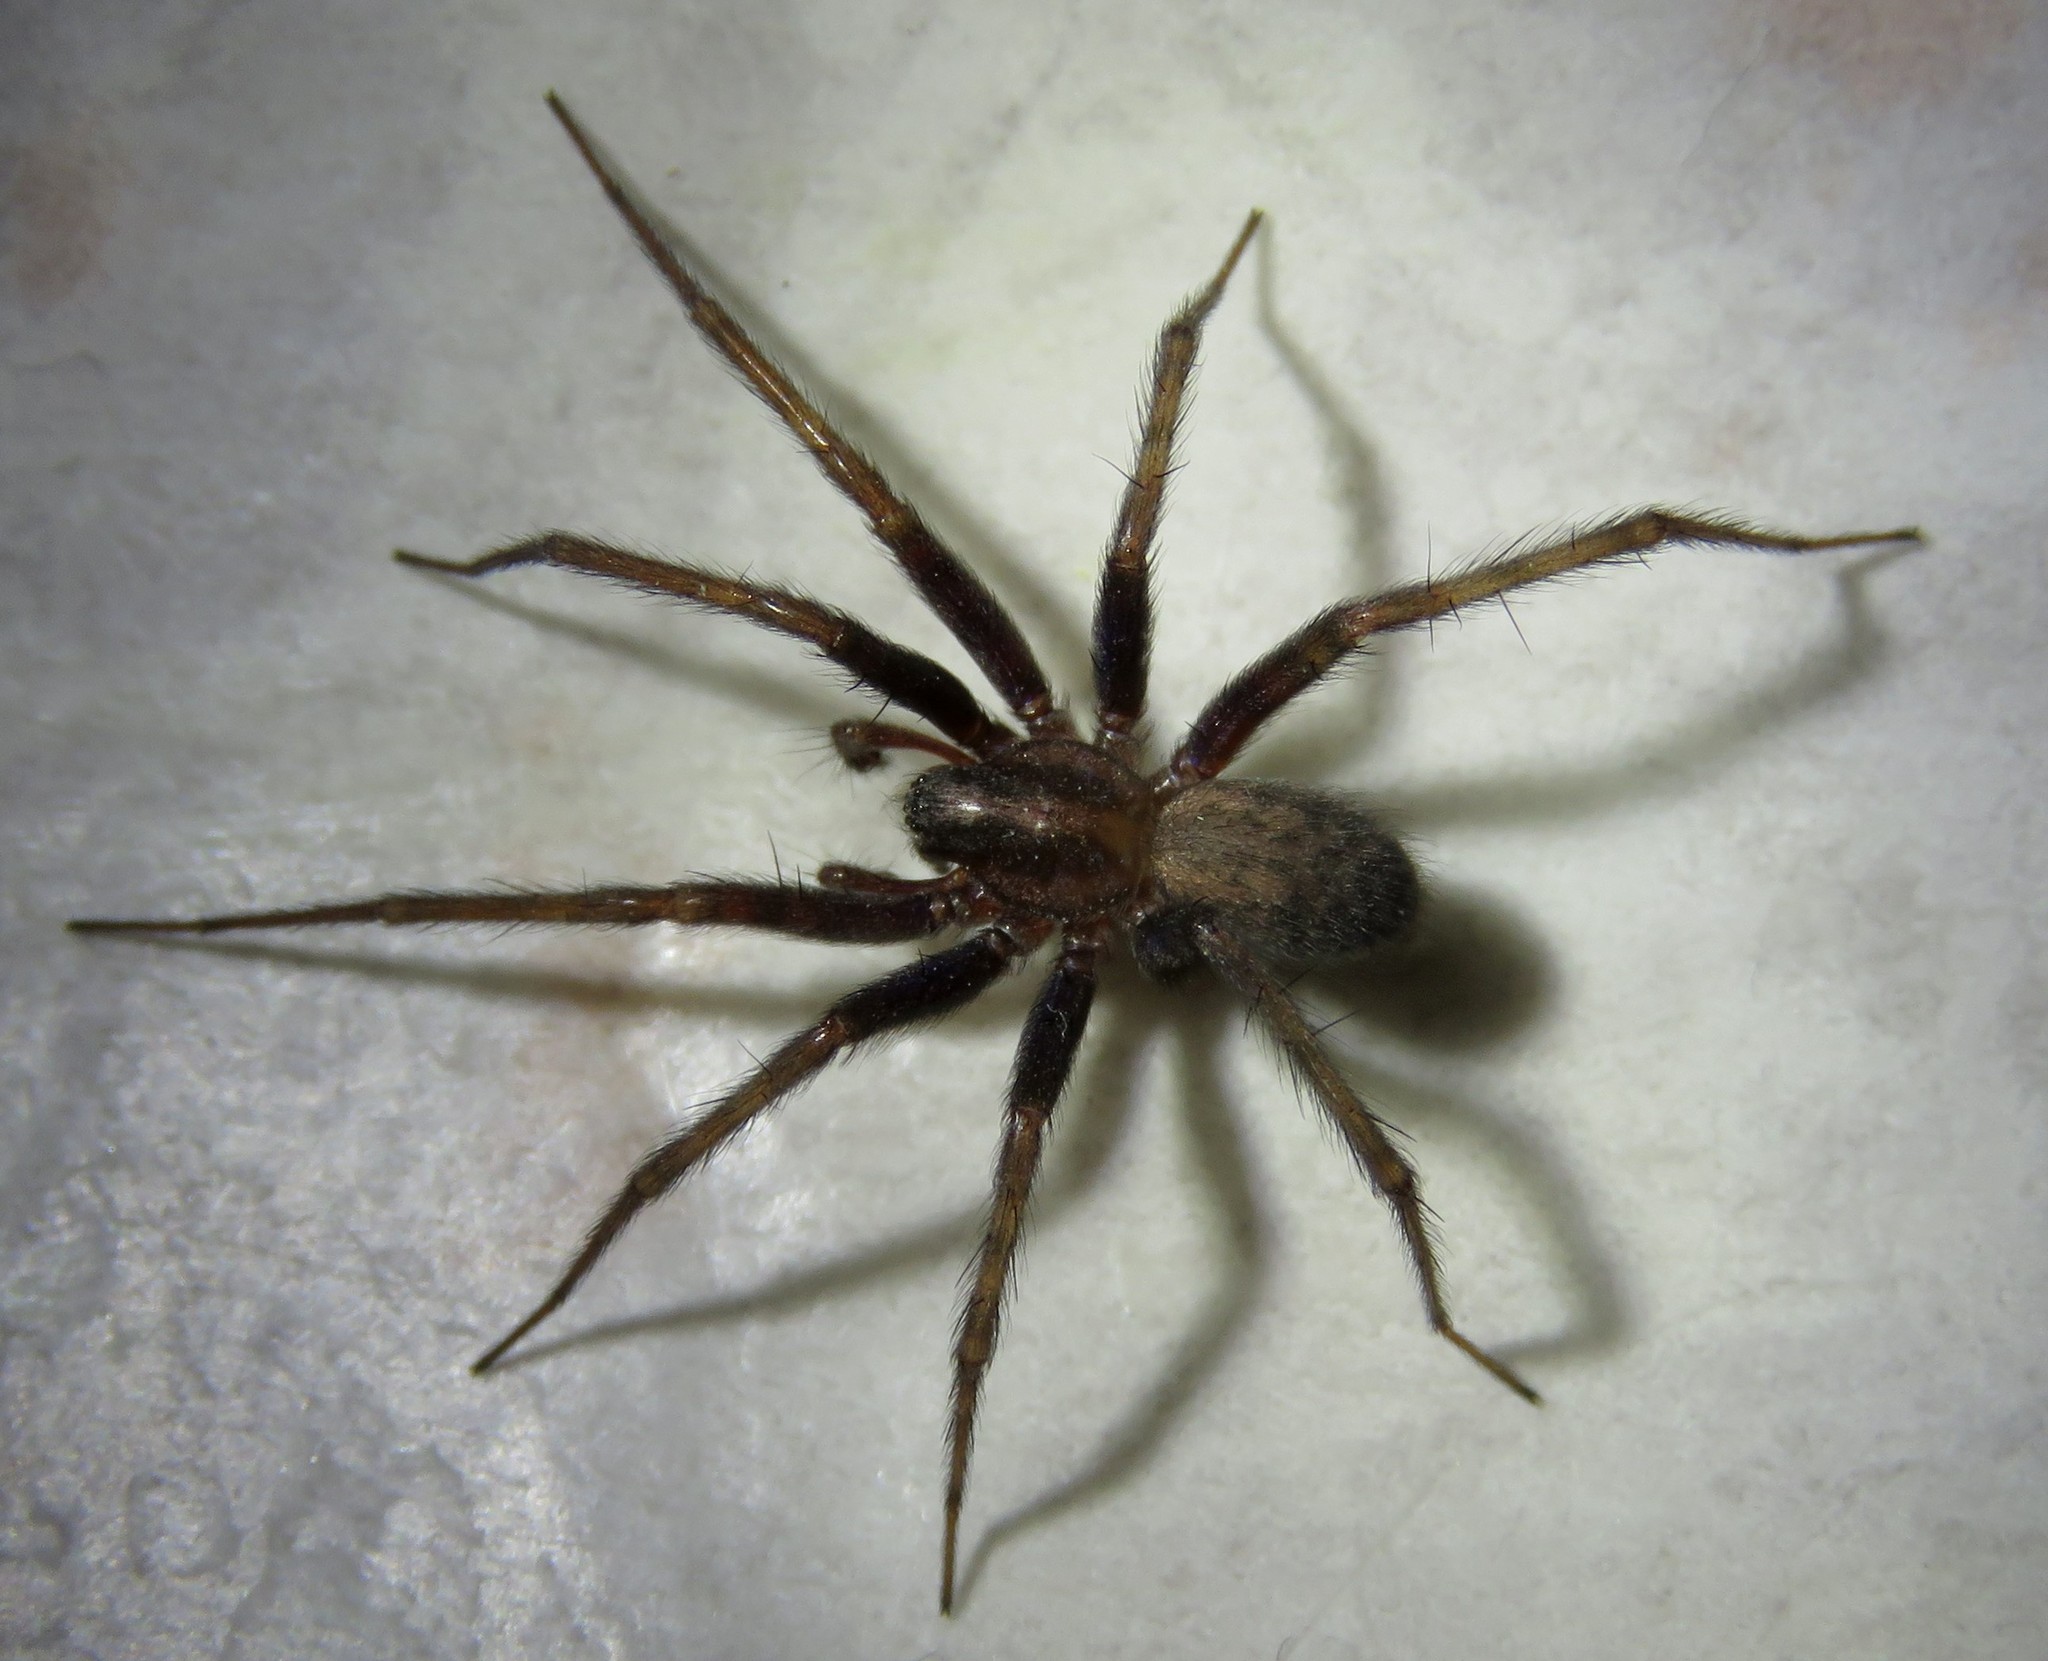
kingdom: Animalia
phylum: Arthropoda
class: Arachnida
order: Araneae
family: Agelenidae
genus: Tegenaria
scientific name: Tegenaria domestica
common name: Barn funnel weaver
